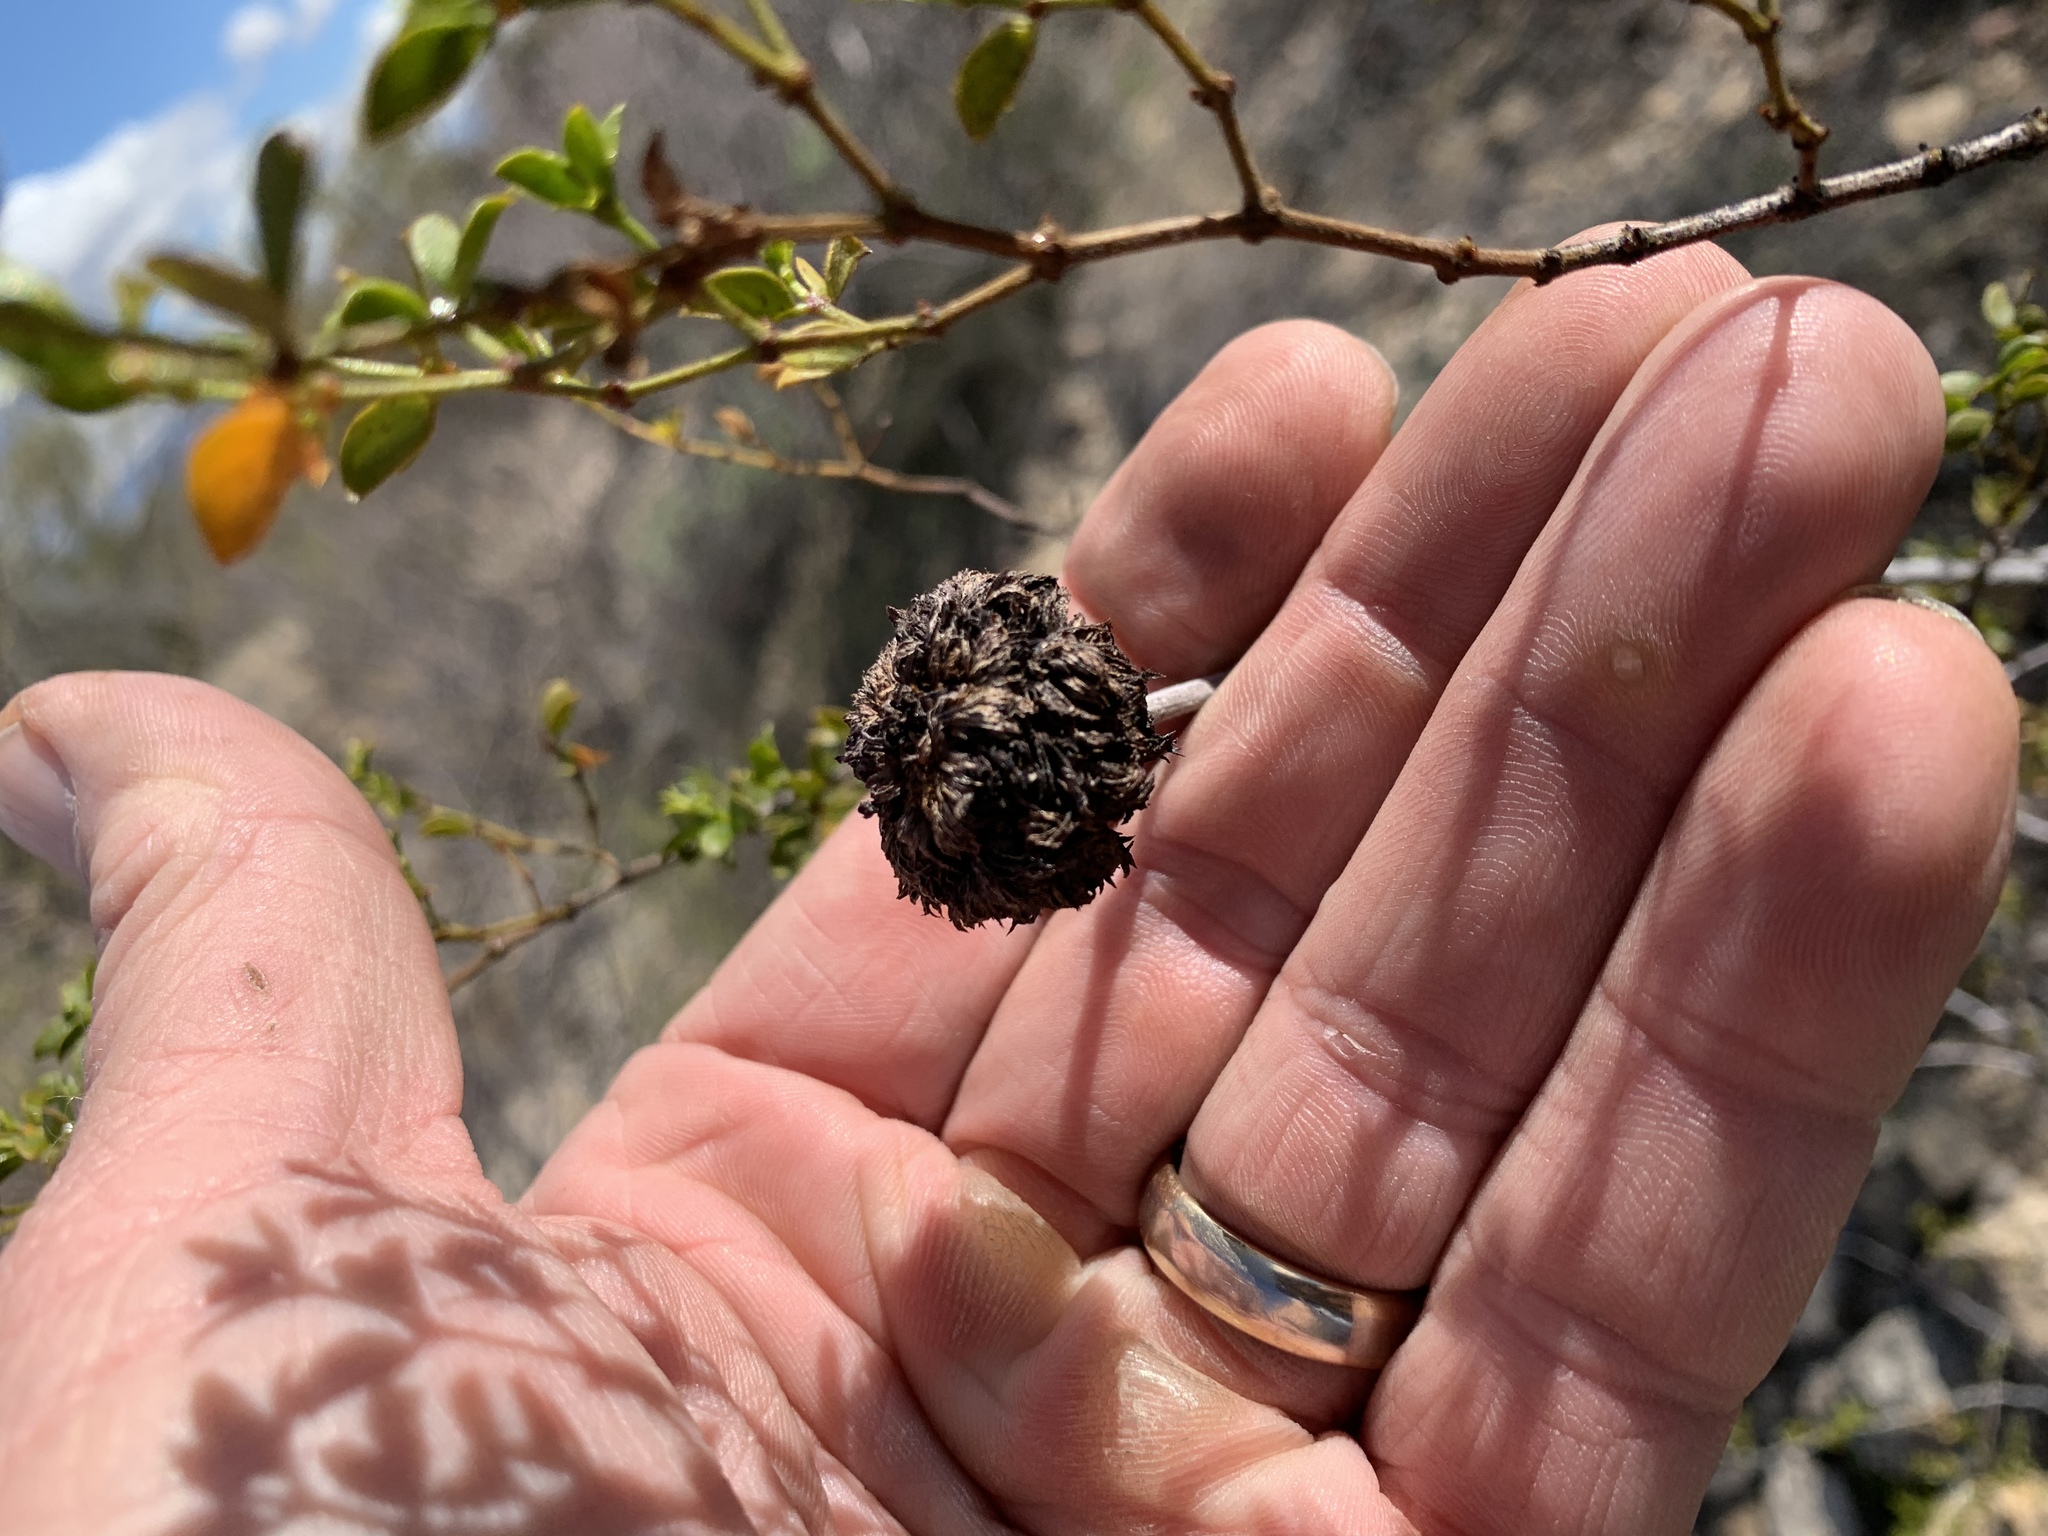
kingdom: Animalia
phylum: Arthropoda
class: Insecta
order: Diptera
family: Cecidomyiidae
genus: Asphondylia
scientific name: Asphondylia auripila
